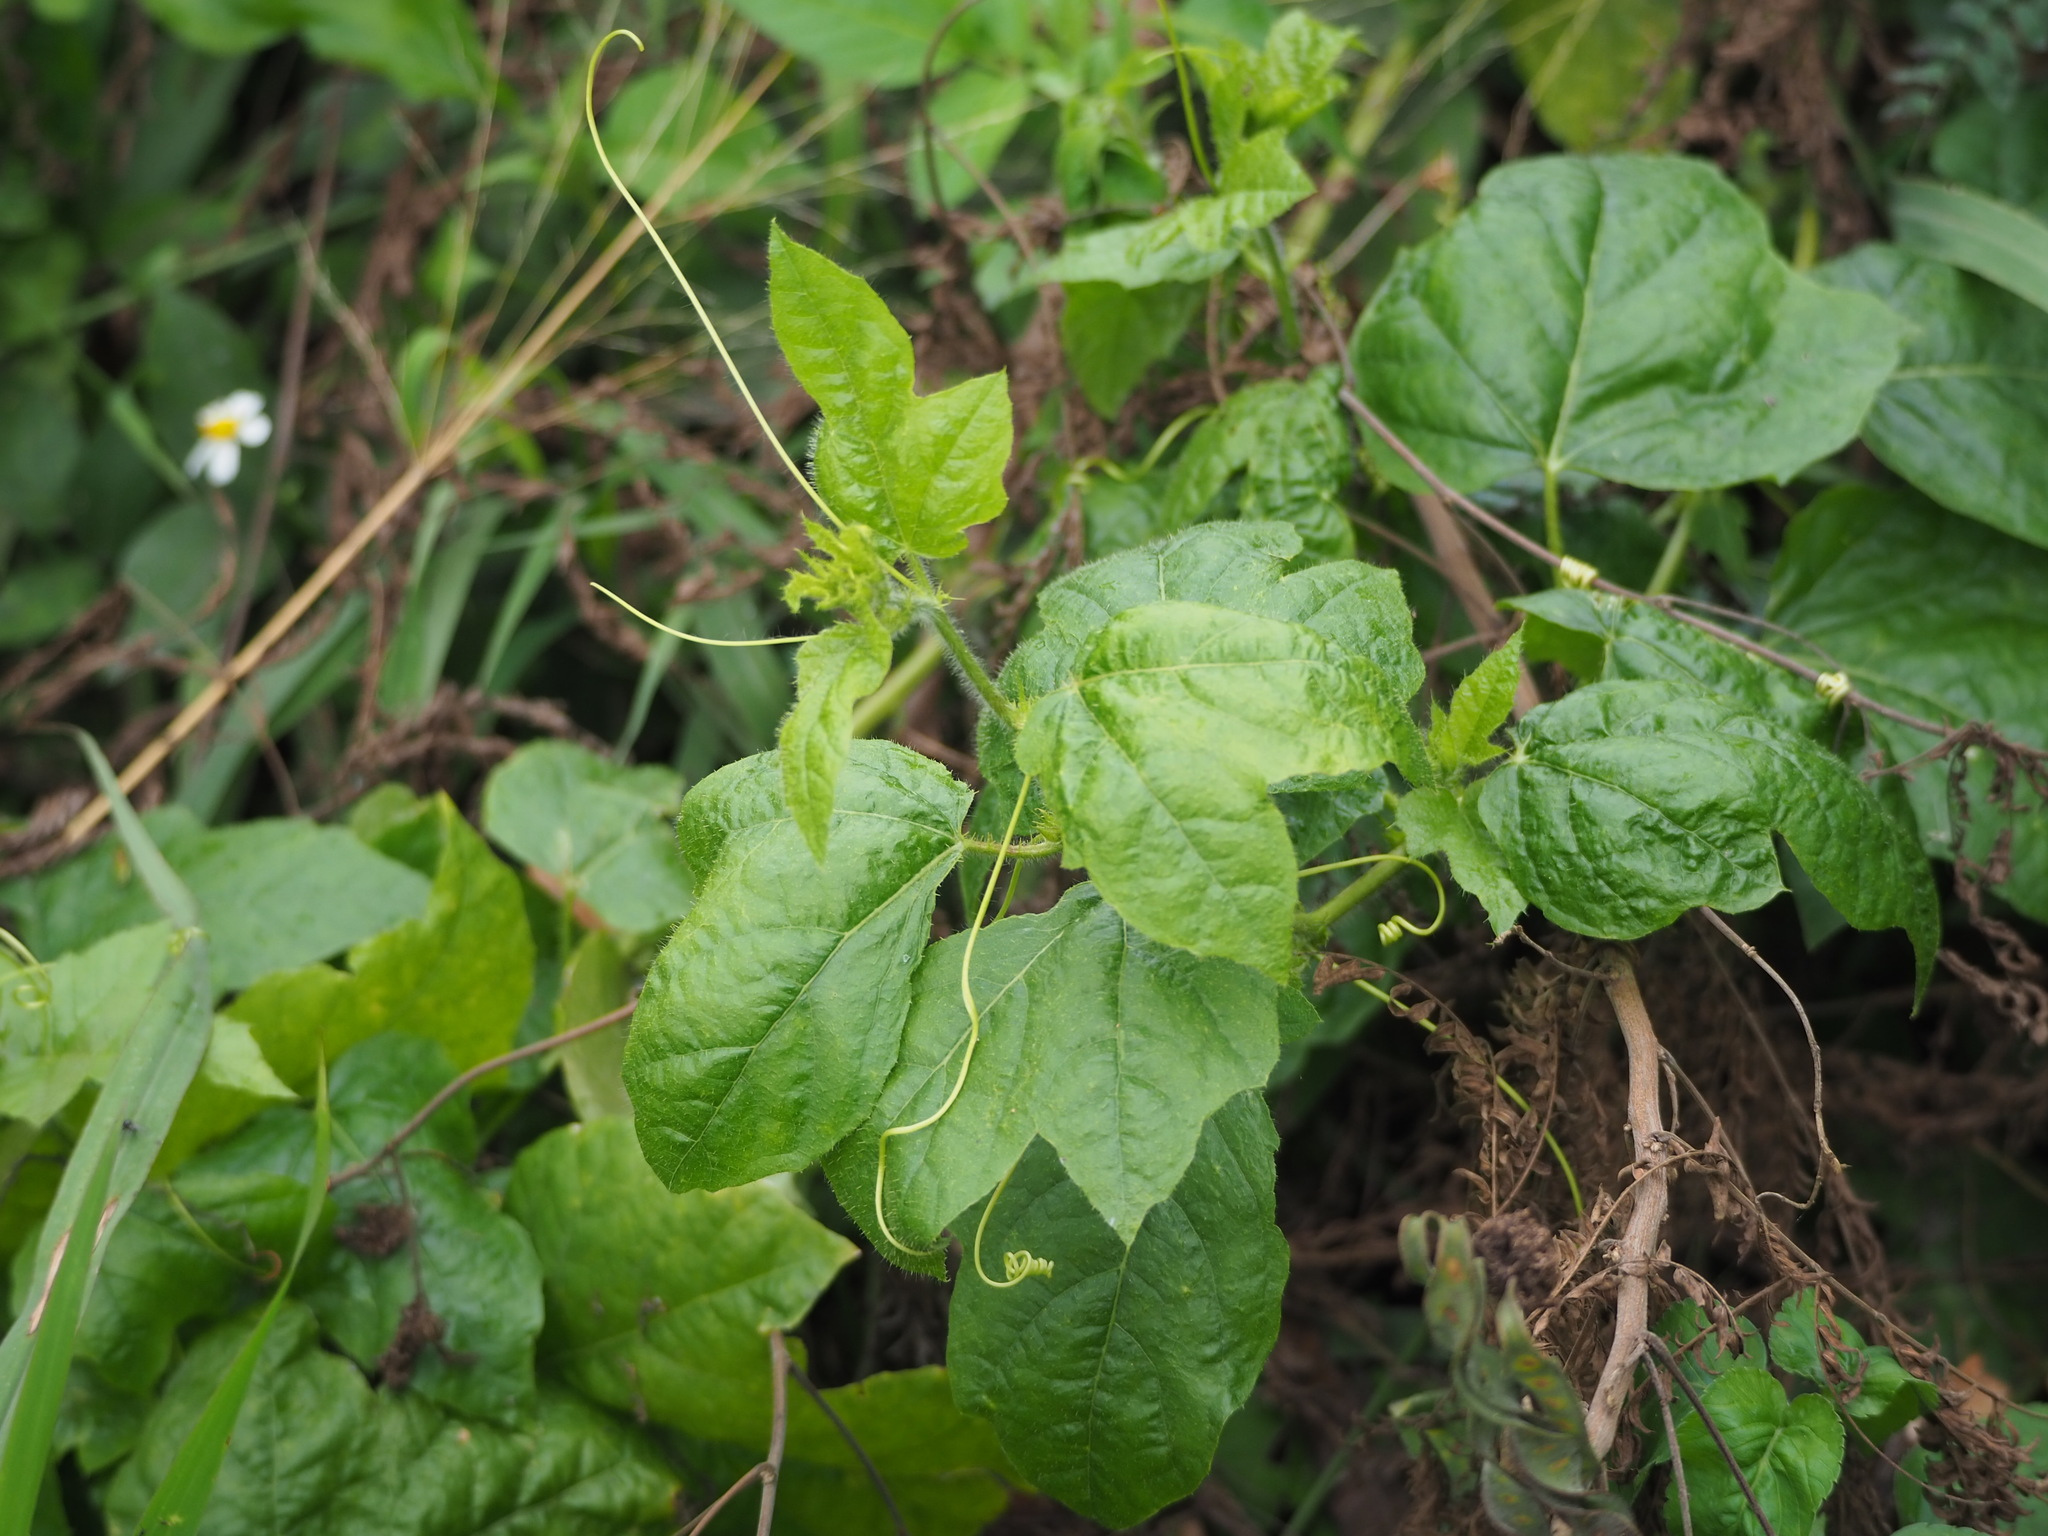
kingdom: Plantae
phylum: Tracheophyta
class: Magnoliopsida
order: Malpighiales
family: Passifloraceae
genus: Passiflora
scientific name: Passiflora vesicaria
